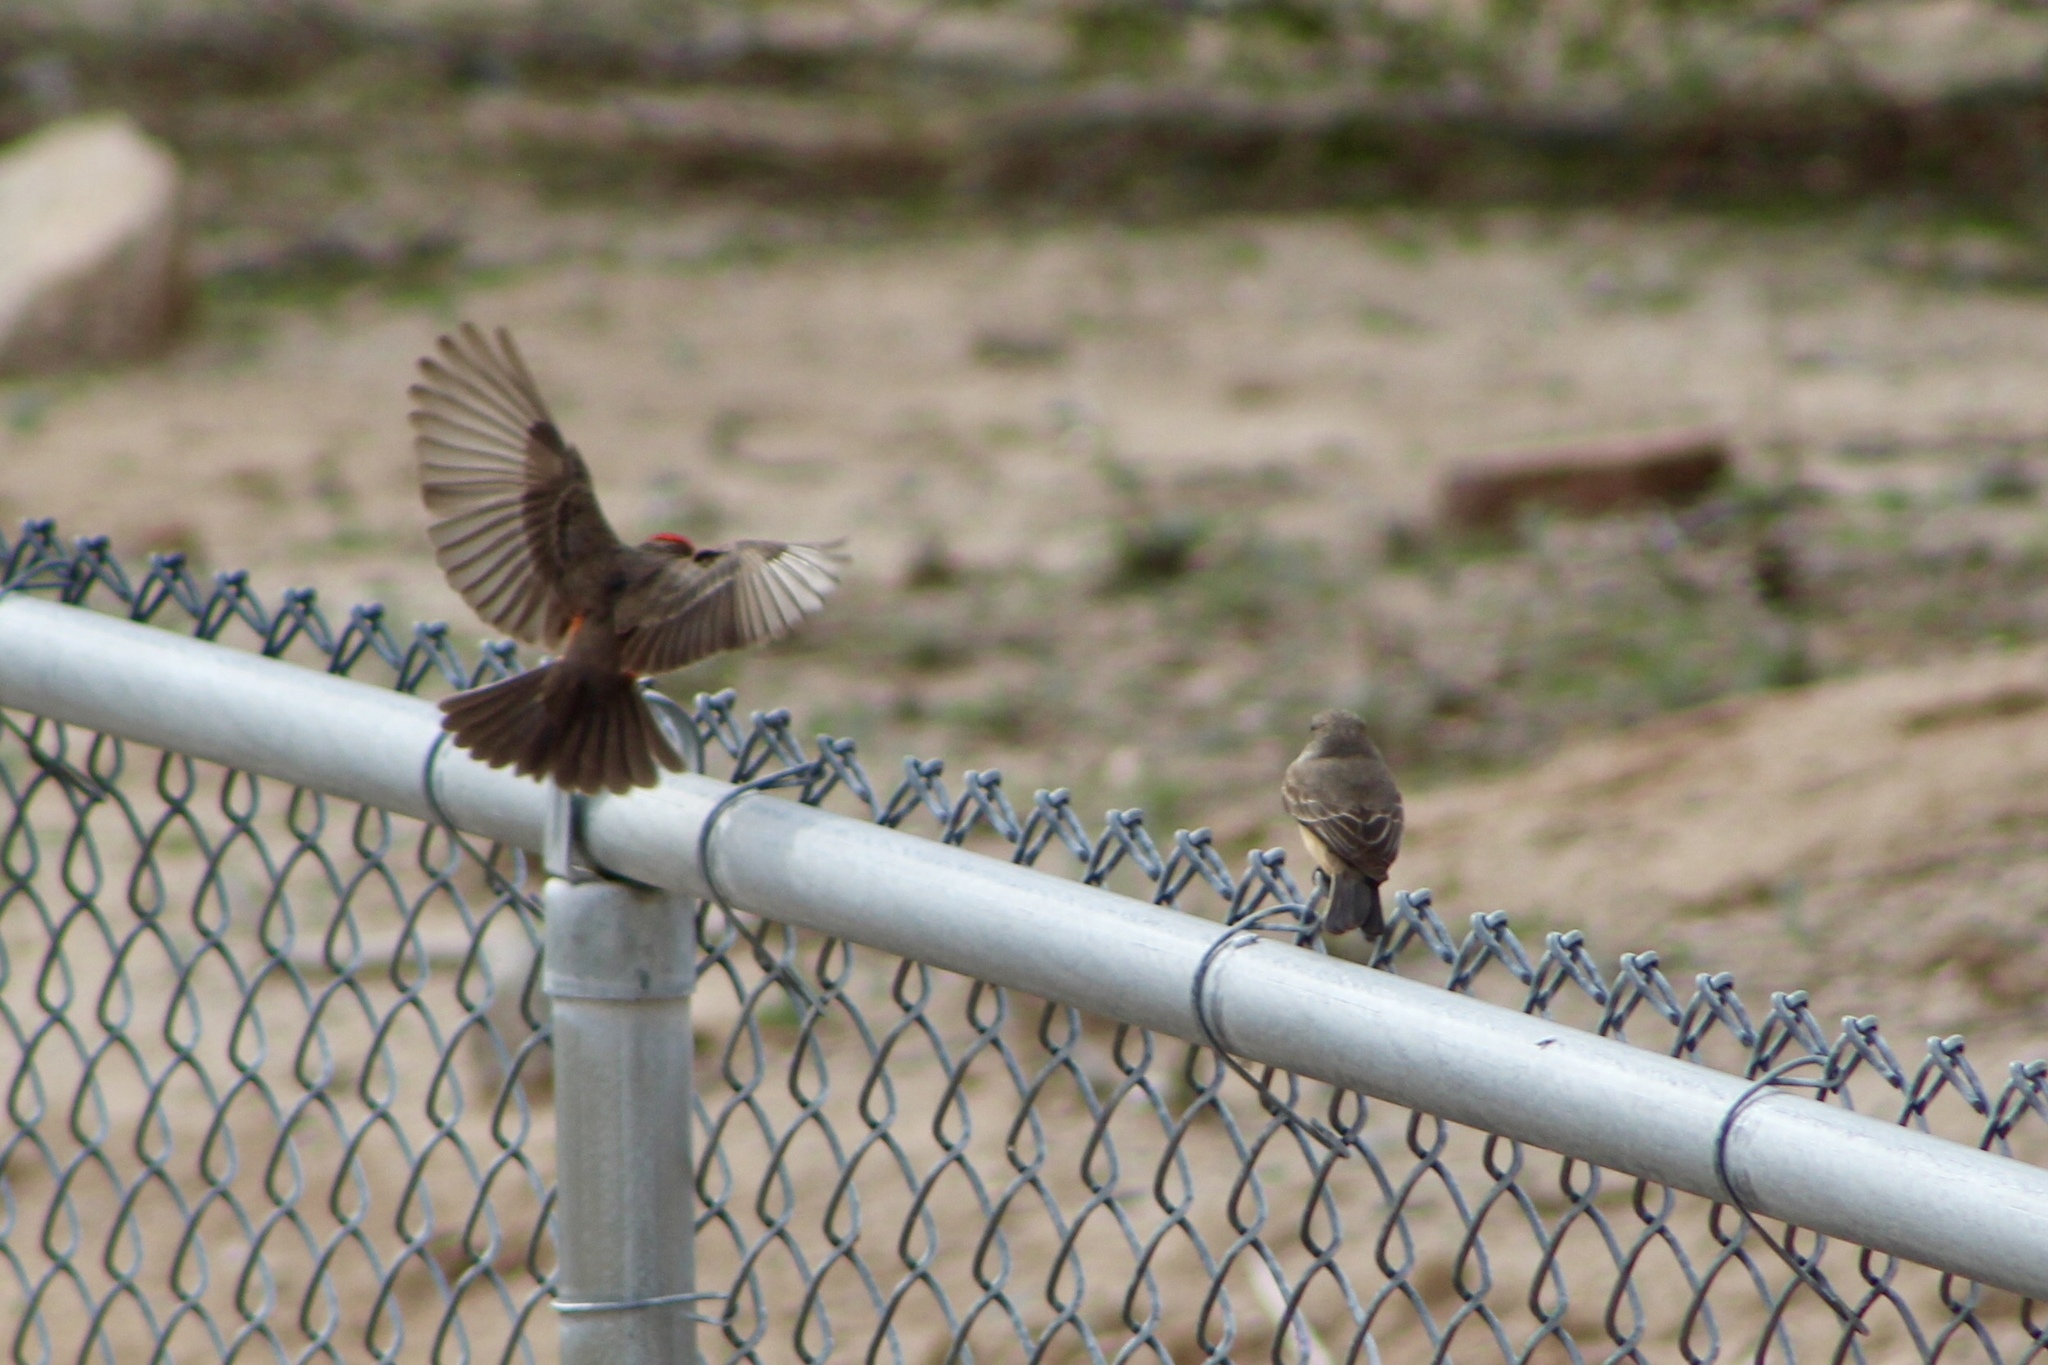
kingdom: Animalia
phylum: Chordata
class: Aves
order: Passeriformes
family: Tyrannidae
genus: Pyrocephalus
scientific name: Pyrocephalus rubinus
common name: Vermilion flycatcher
